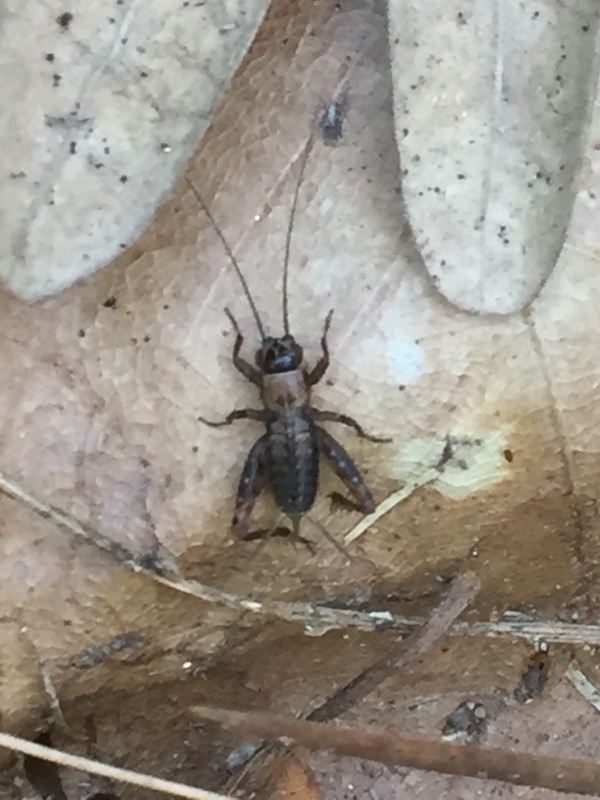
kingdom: Animalia
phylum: Arthropoda
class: Insecta
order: Orthoptera
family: Trigonidiidae
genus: Nemobius
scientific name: Nemobius sylvestris
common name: Wood-cricket
